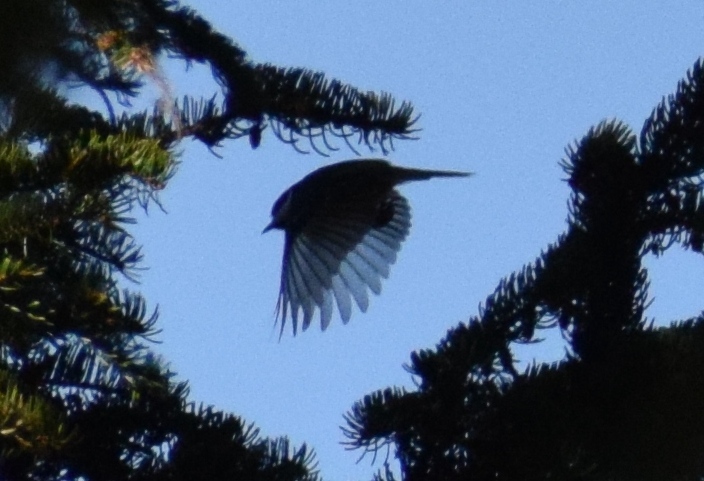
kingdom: Animalia
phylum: Chordata
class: Aves
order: Passeriformes
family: Paridae
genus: Periparus
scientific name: Periparus ater
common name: Coal tit
